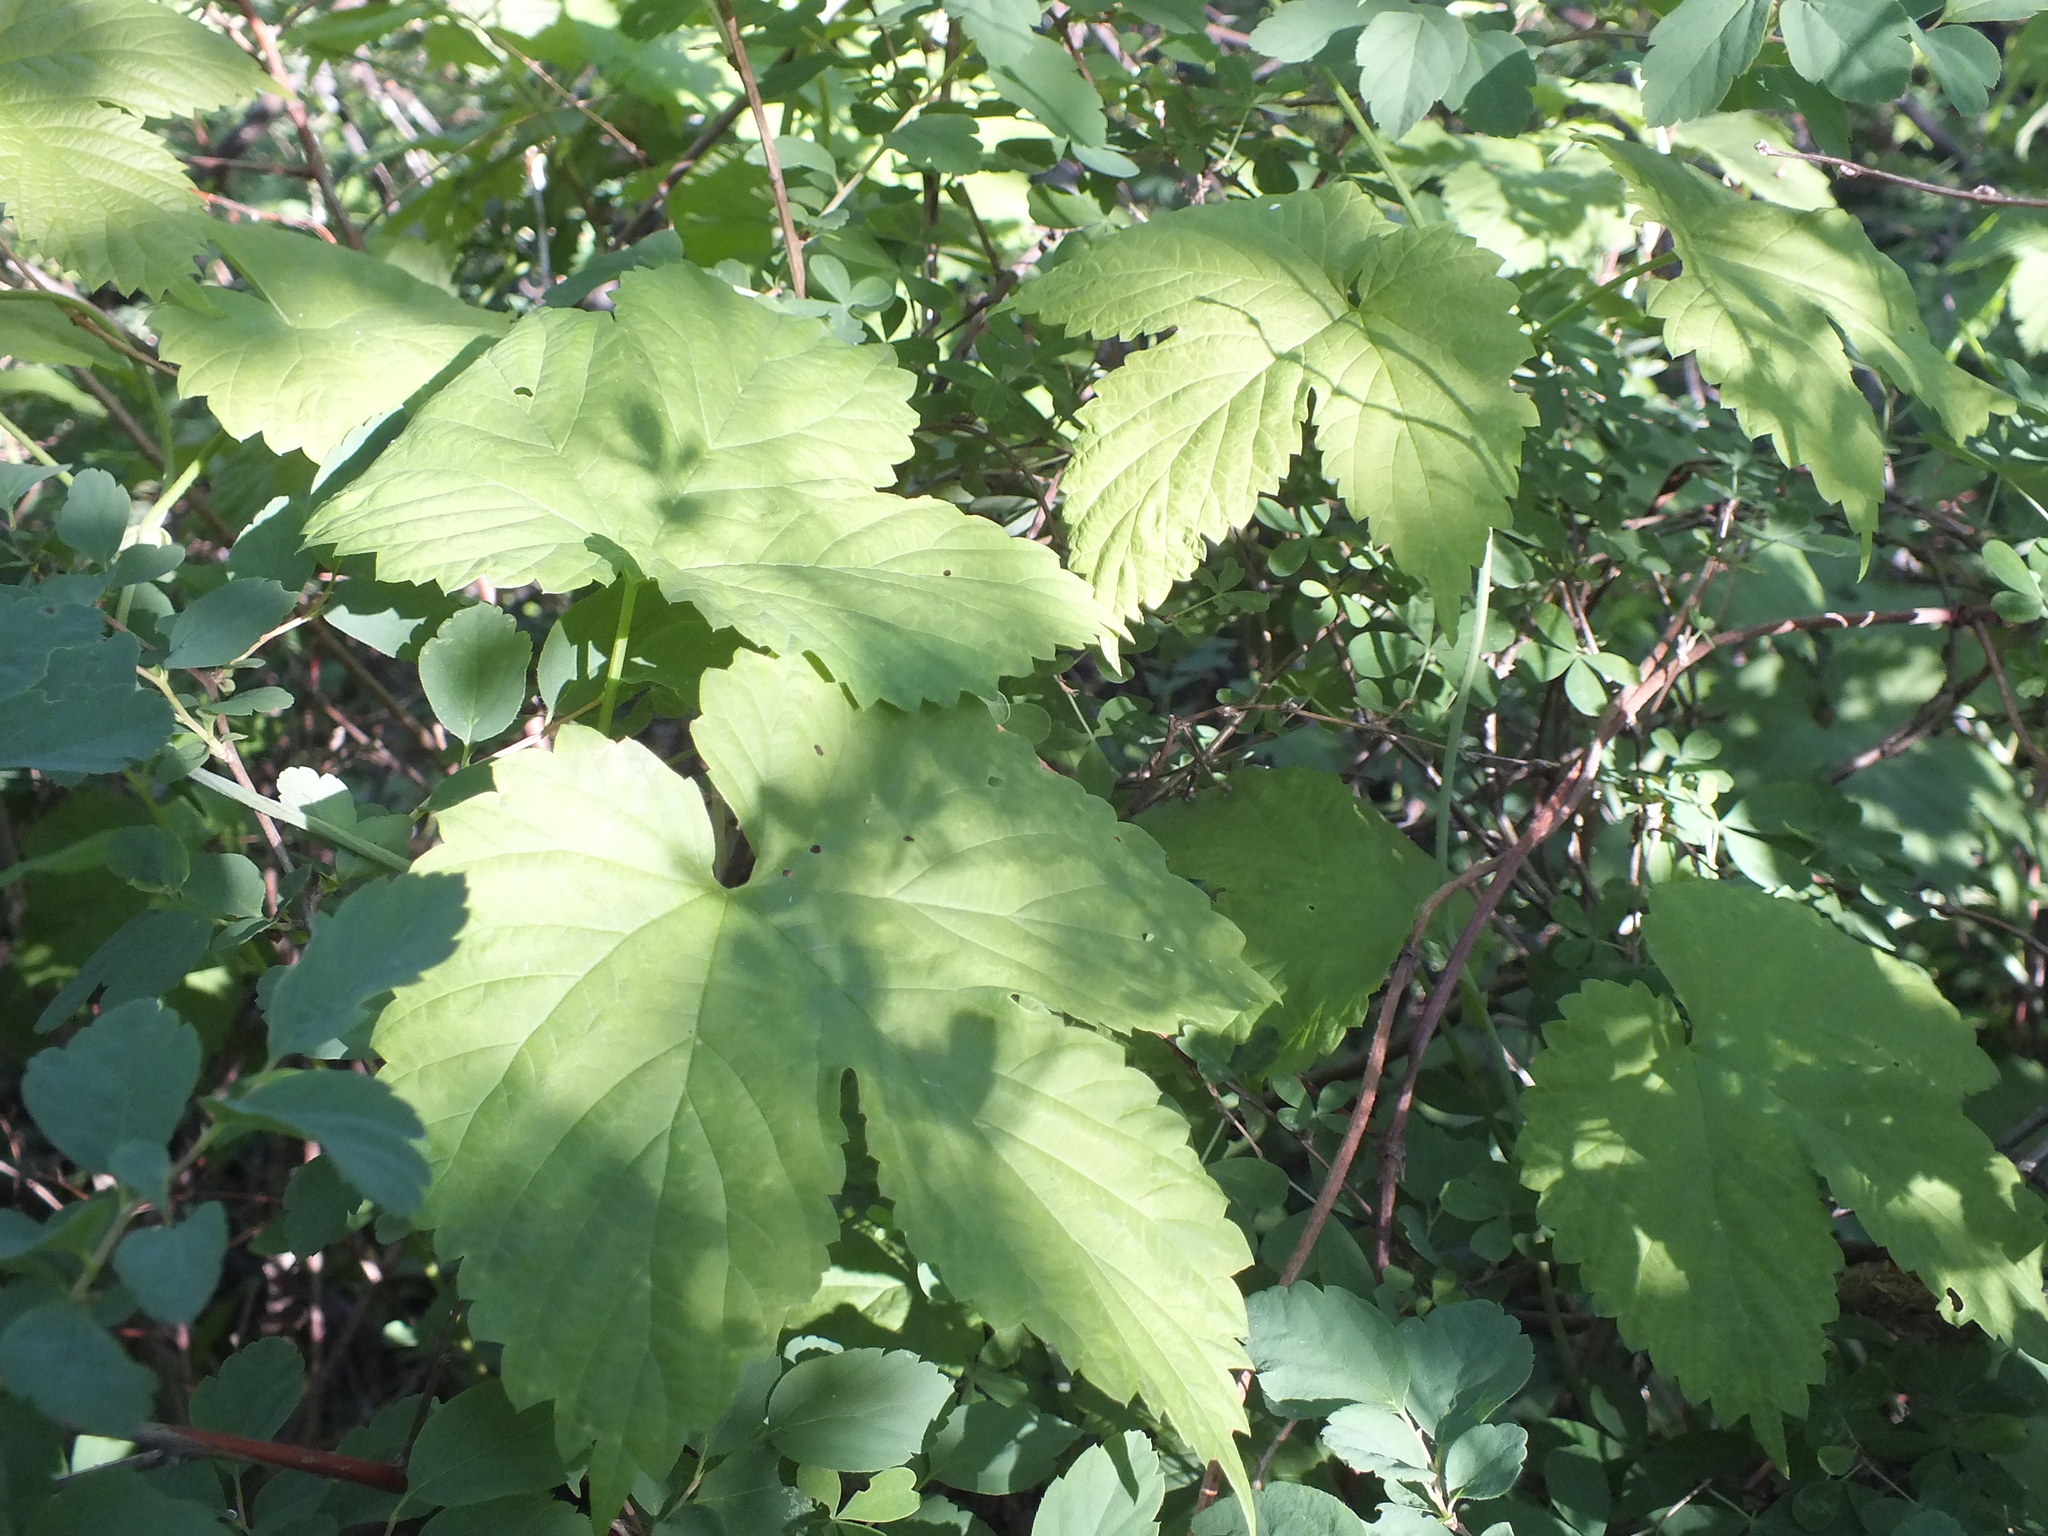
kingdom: Plantae
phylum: Tracheophyta
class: Magnoliopsida
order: Rosales
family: Cannabaceae
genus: Humulus
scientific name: Humulus lupulus
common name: Hop
